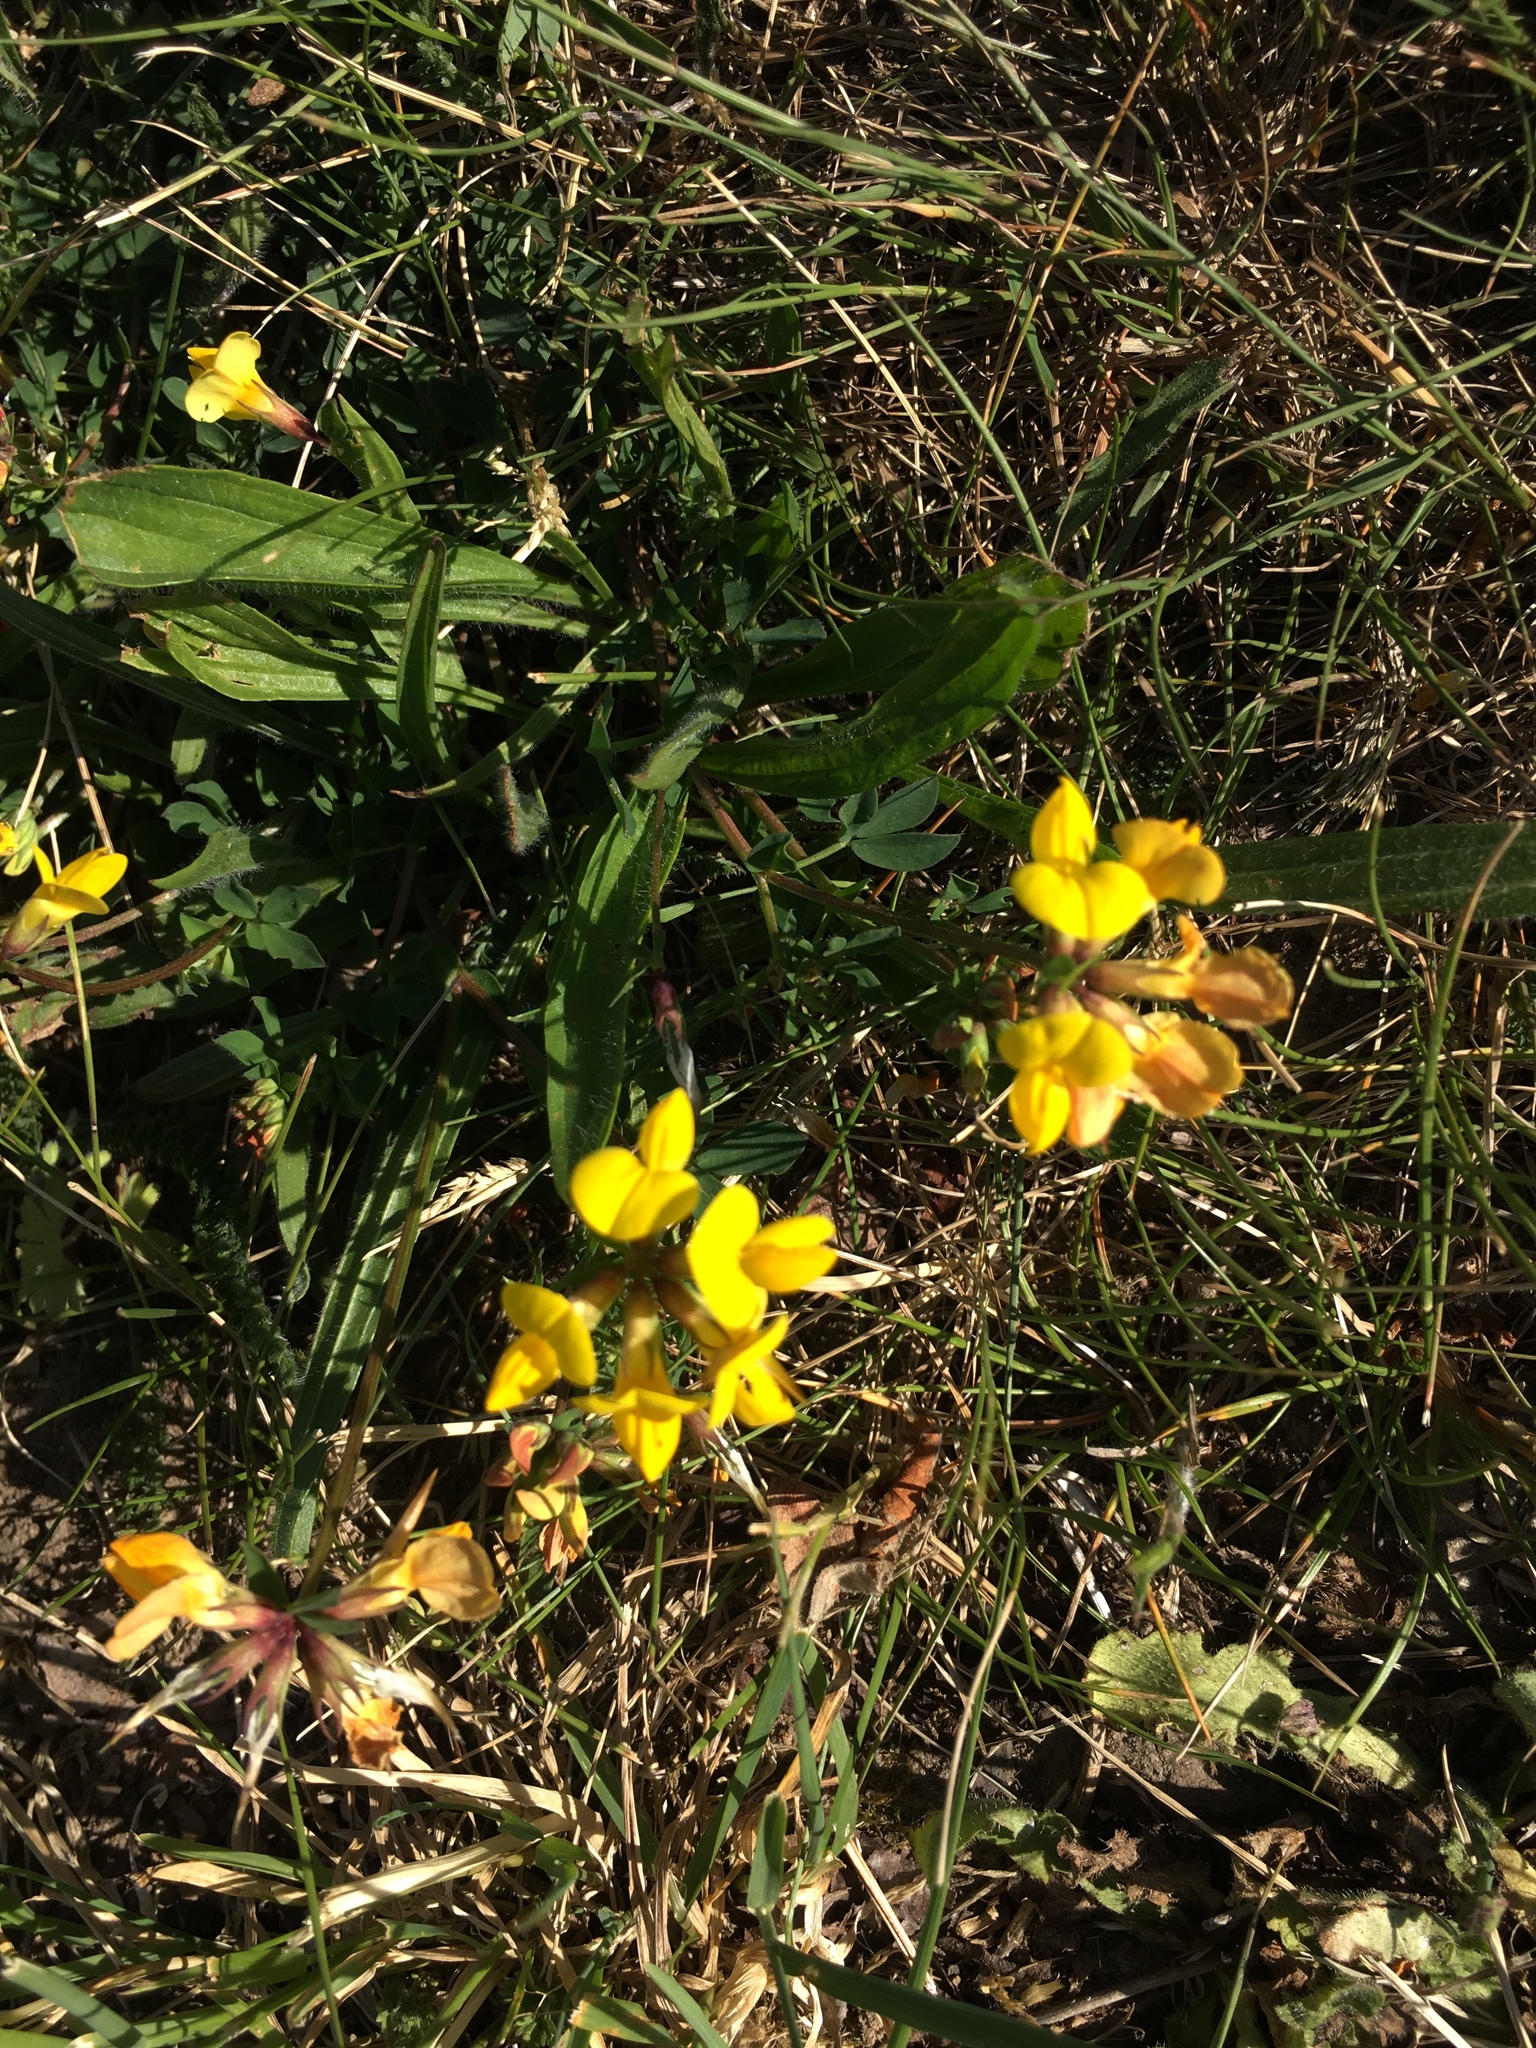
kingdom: Plantae
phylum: Tracheophyta
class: Magnoliopsida
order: Fabales
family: Fabaceae
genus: Lotus
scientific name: Lotus corniculatus
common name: Common bird's-foot-trefoil
